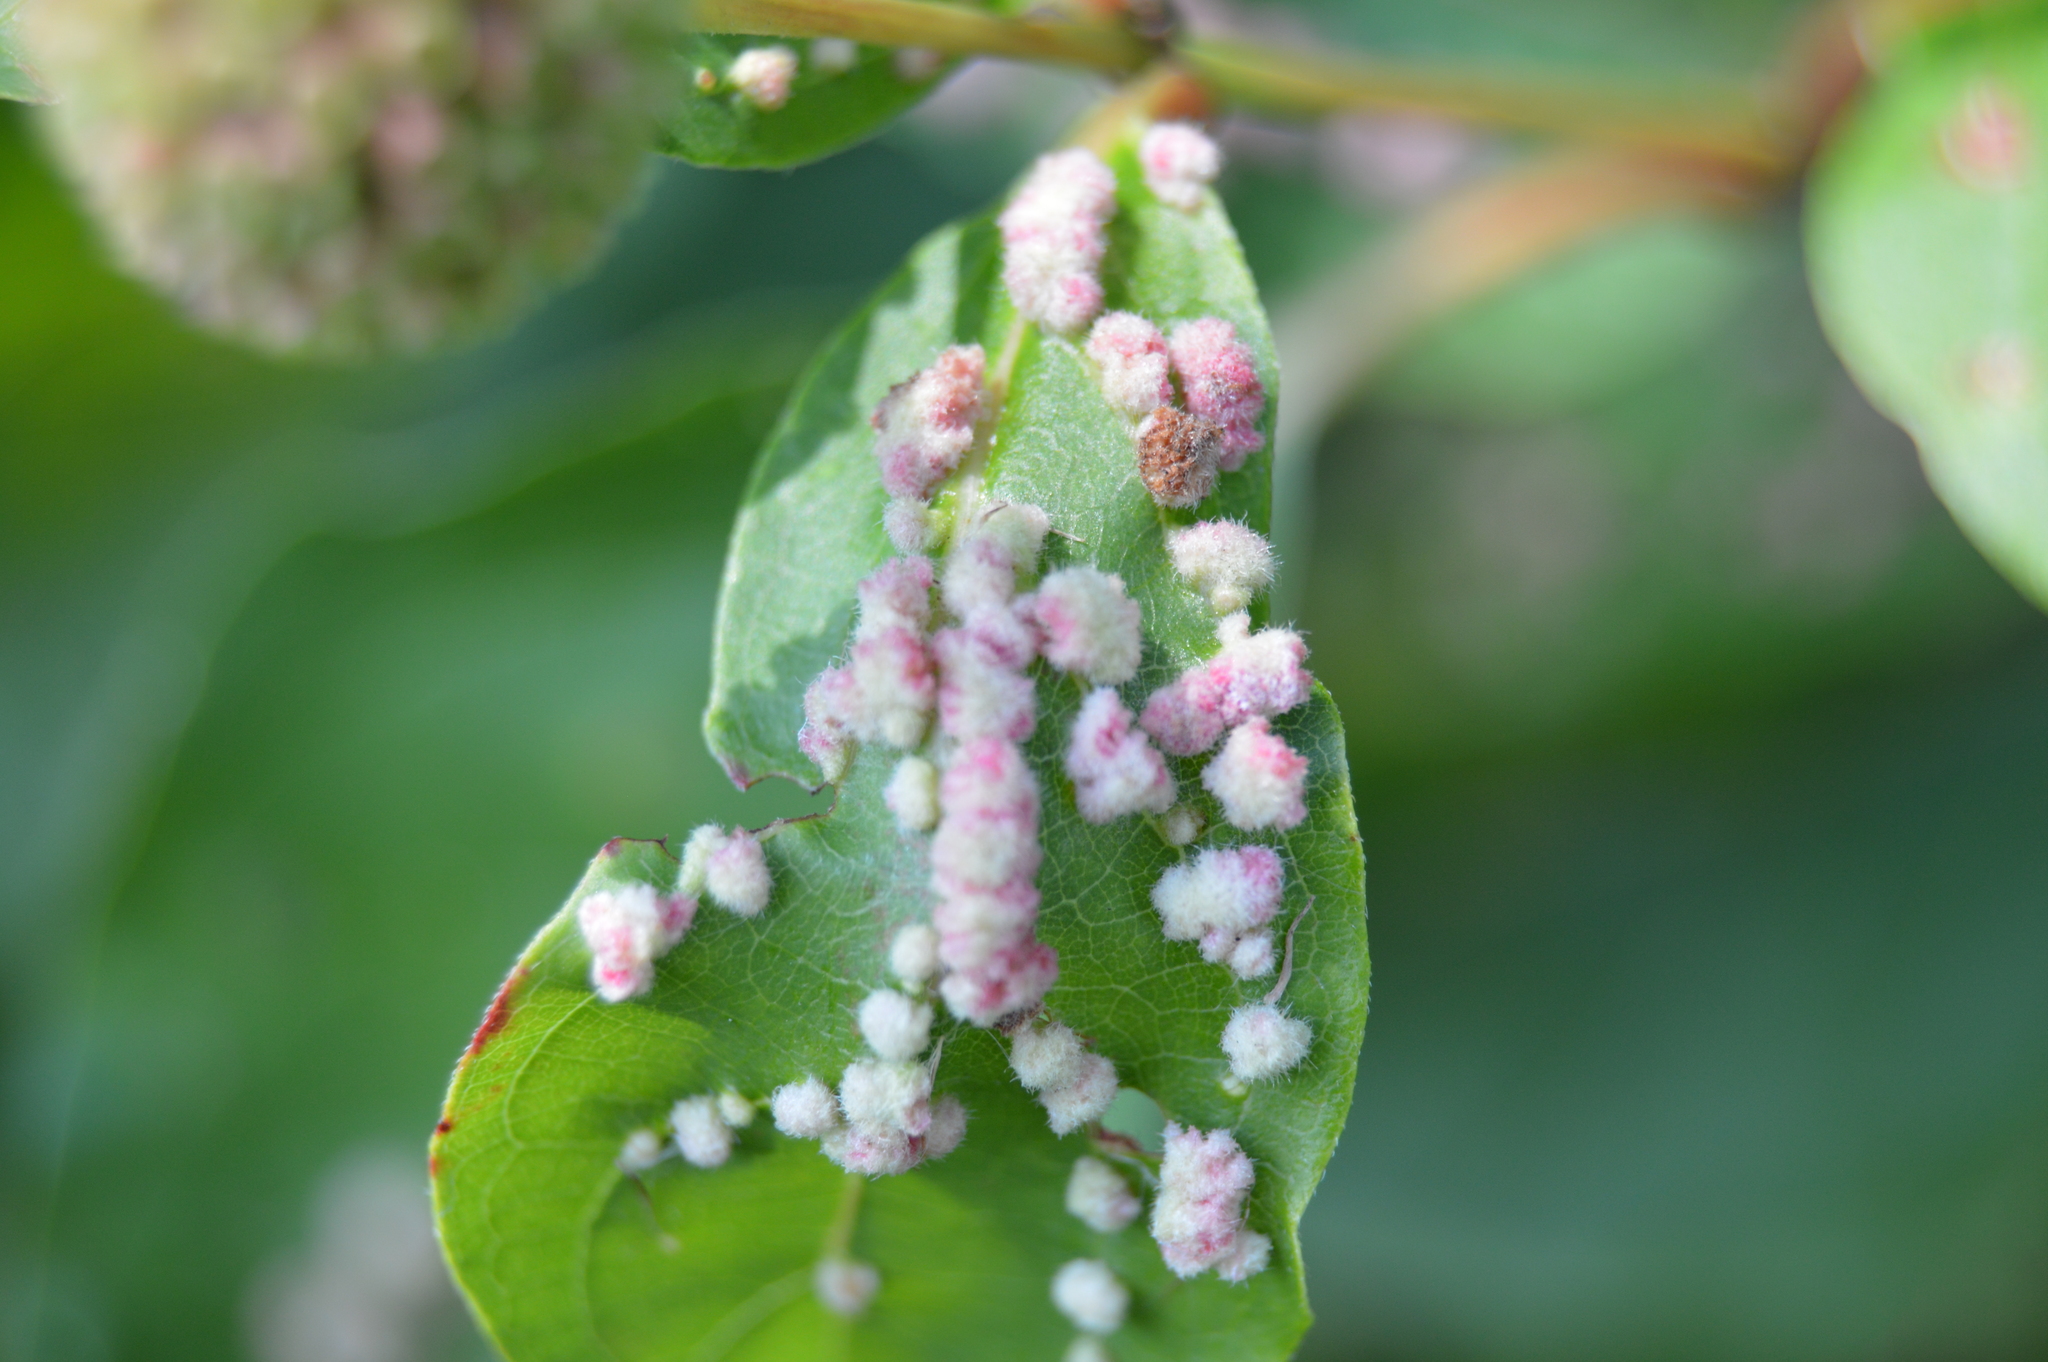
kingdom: Animalia
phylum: Arthropoda
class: Arachnida
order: Trombidiformes
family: Eriophyidae
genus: Aceria
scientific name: Aceria
